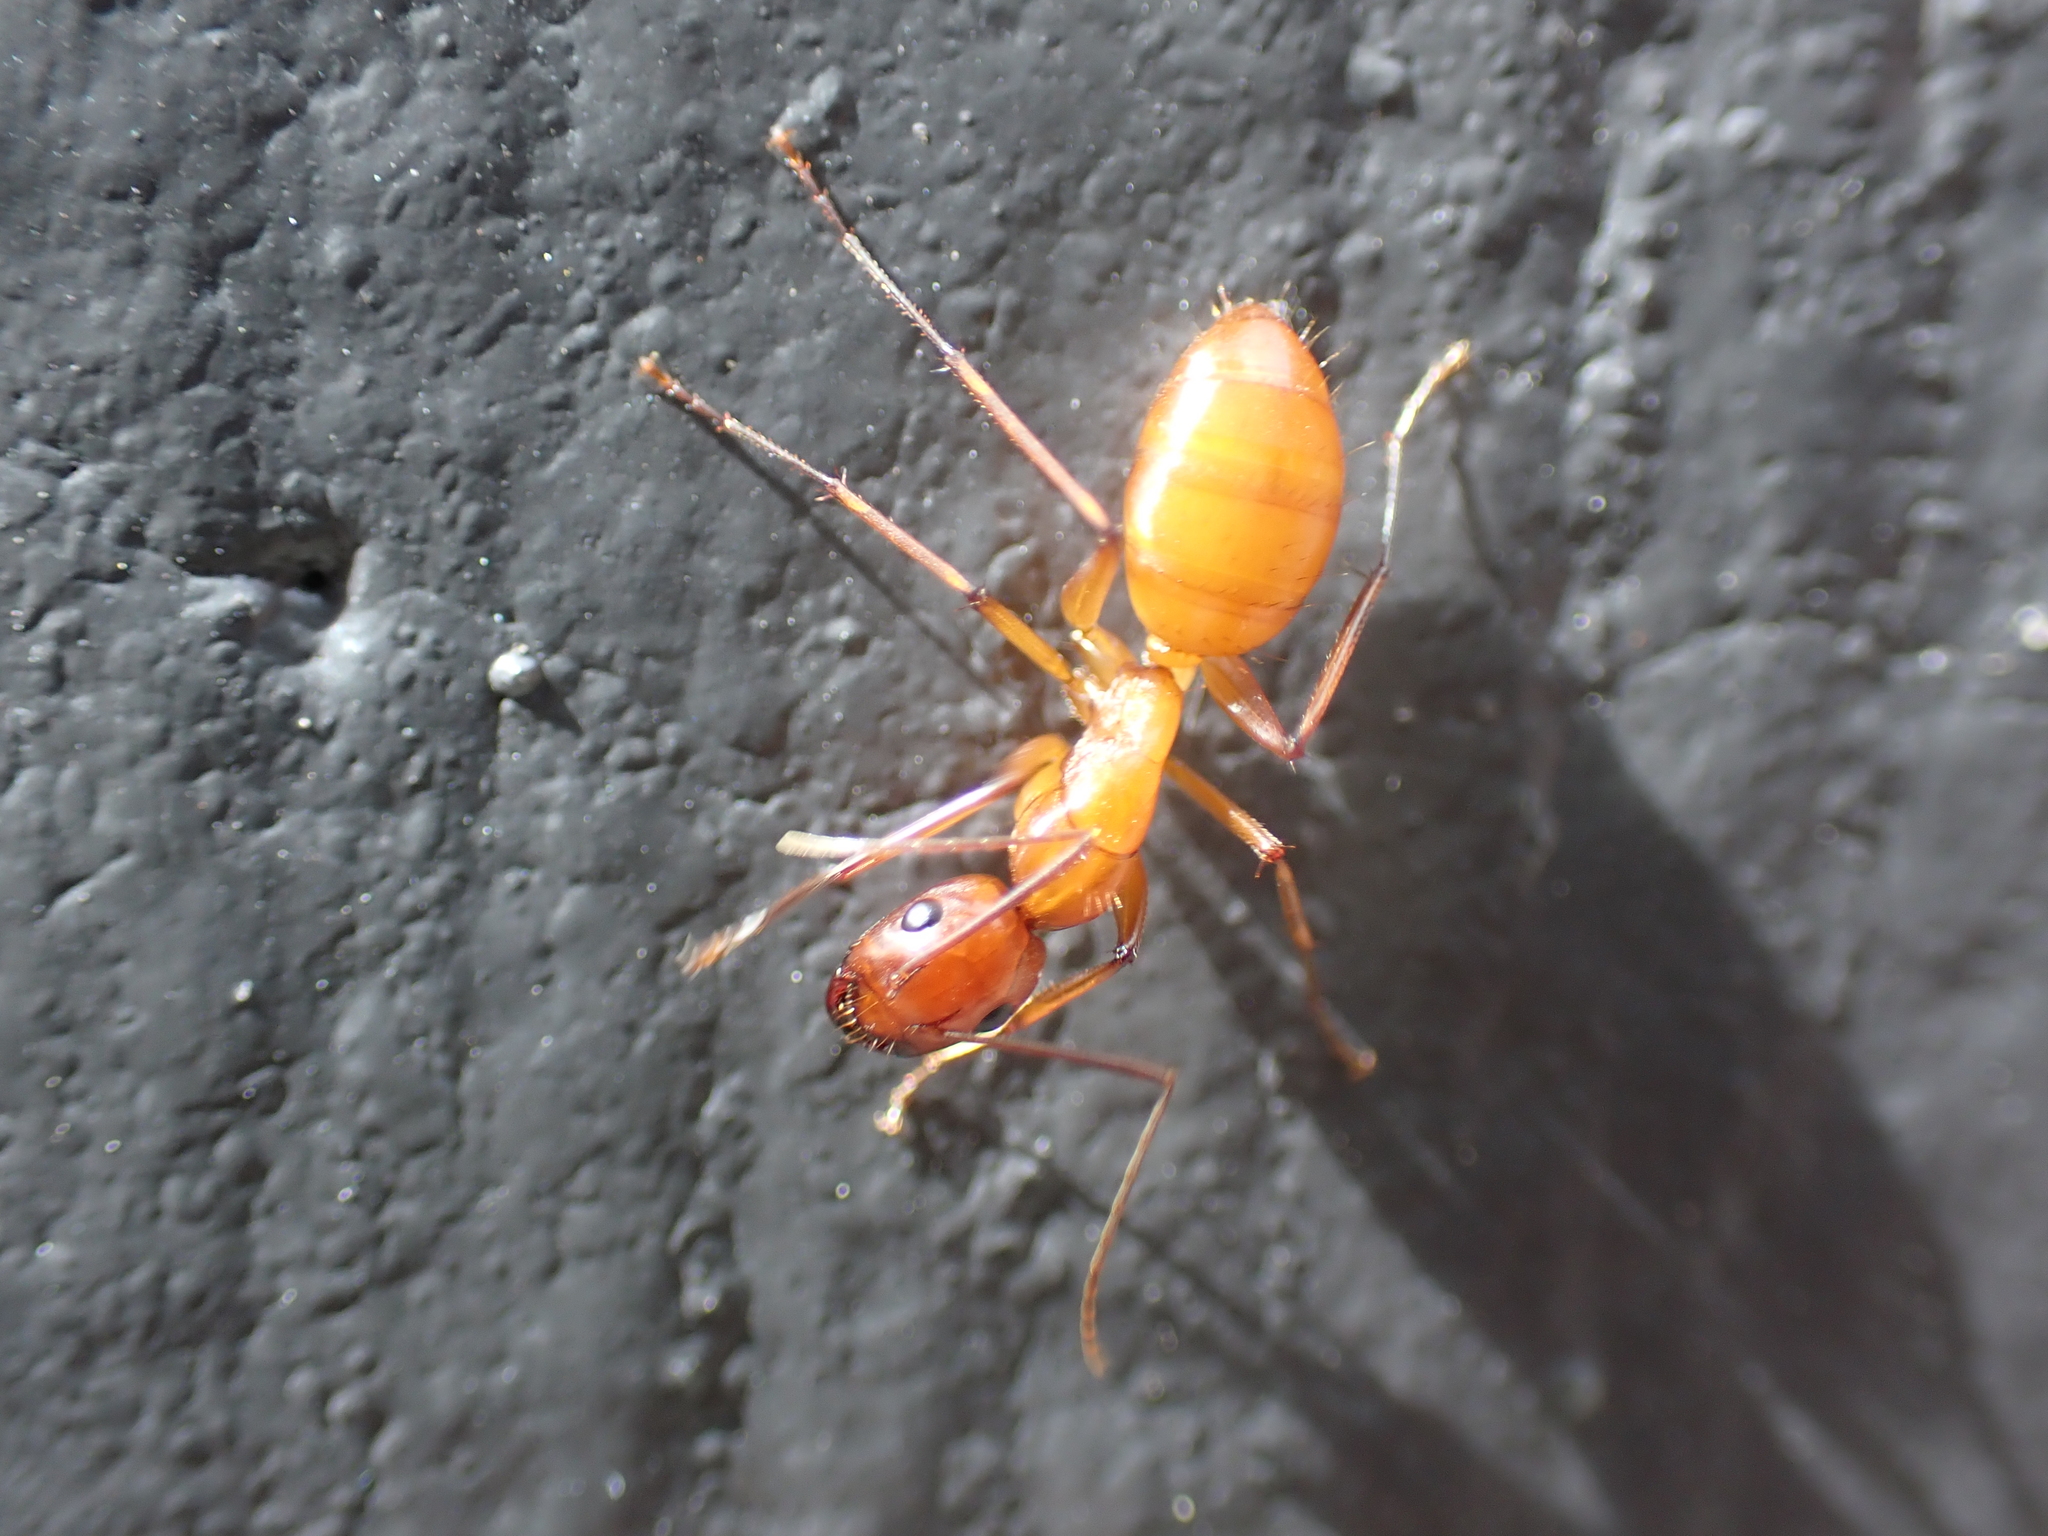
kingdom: Animalia
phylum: Arthropoda
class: Insecta
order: Hymenoptera
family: Formicidae
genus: Camponotus
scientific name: Camponotus castaneus
